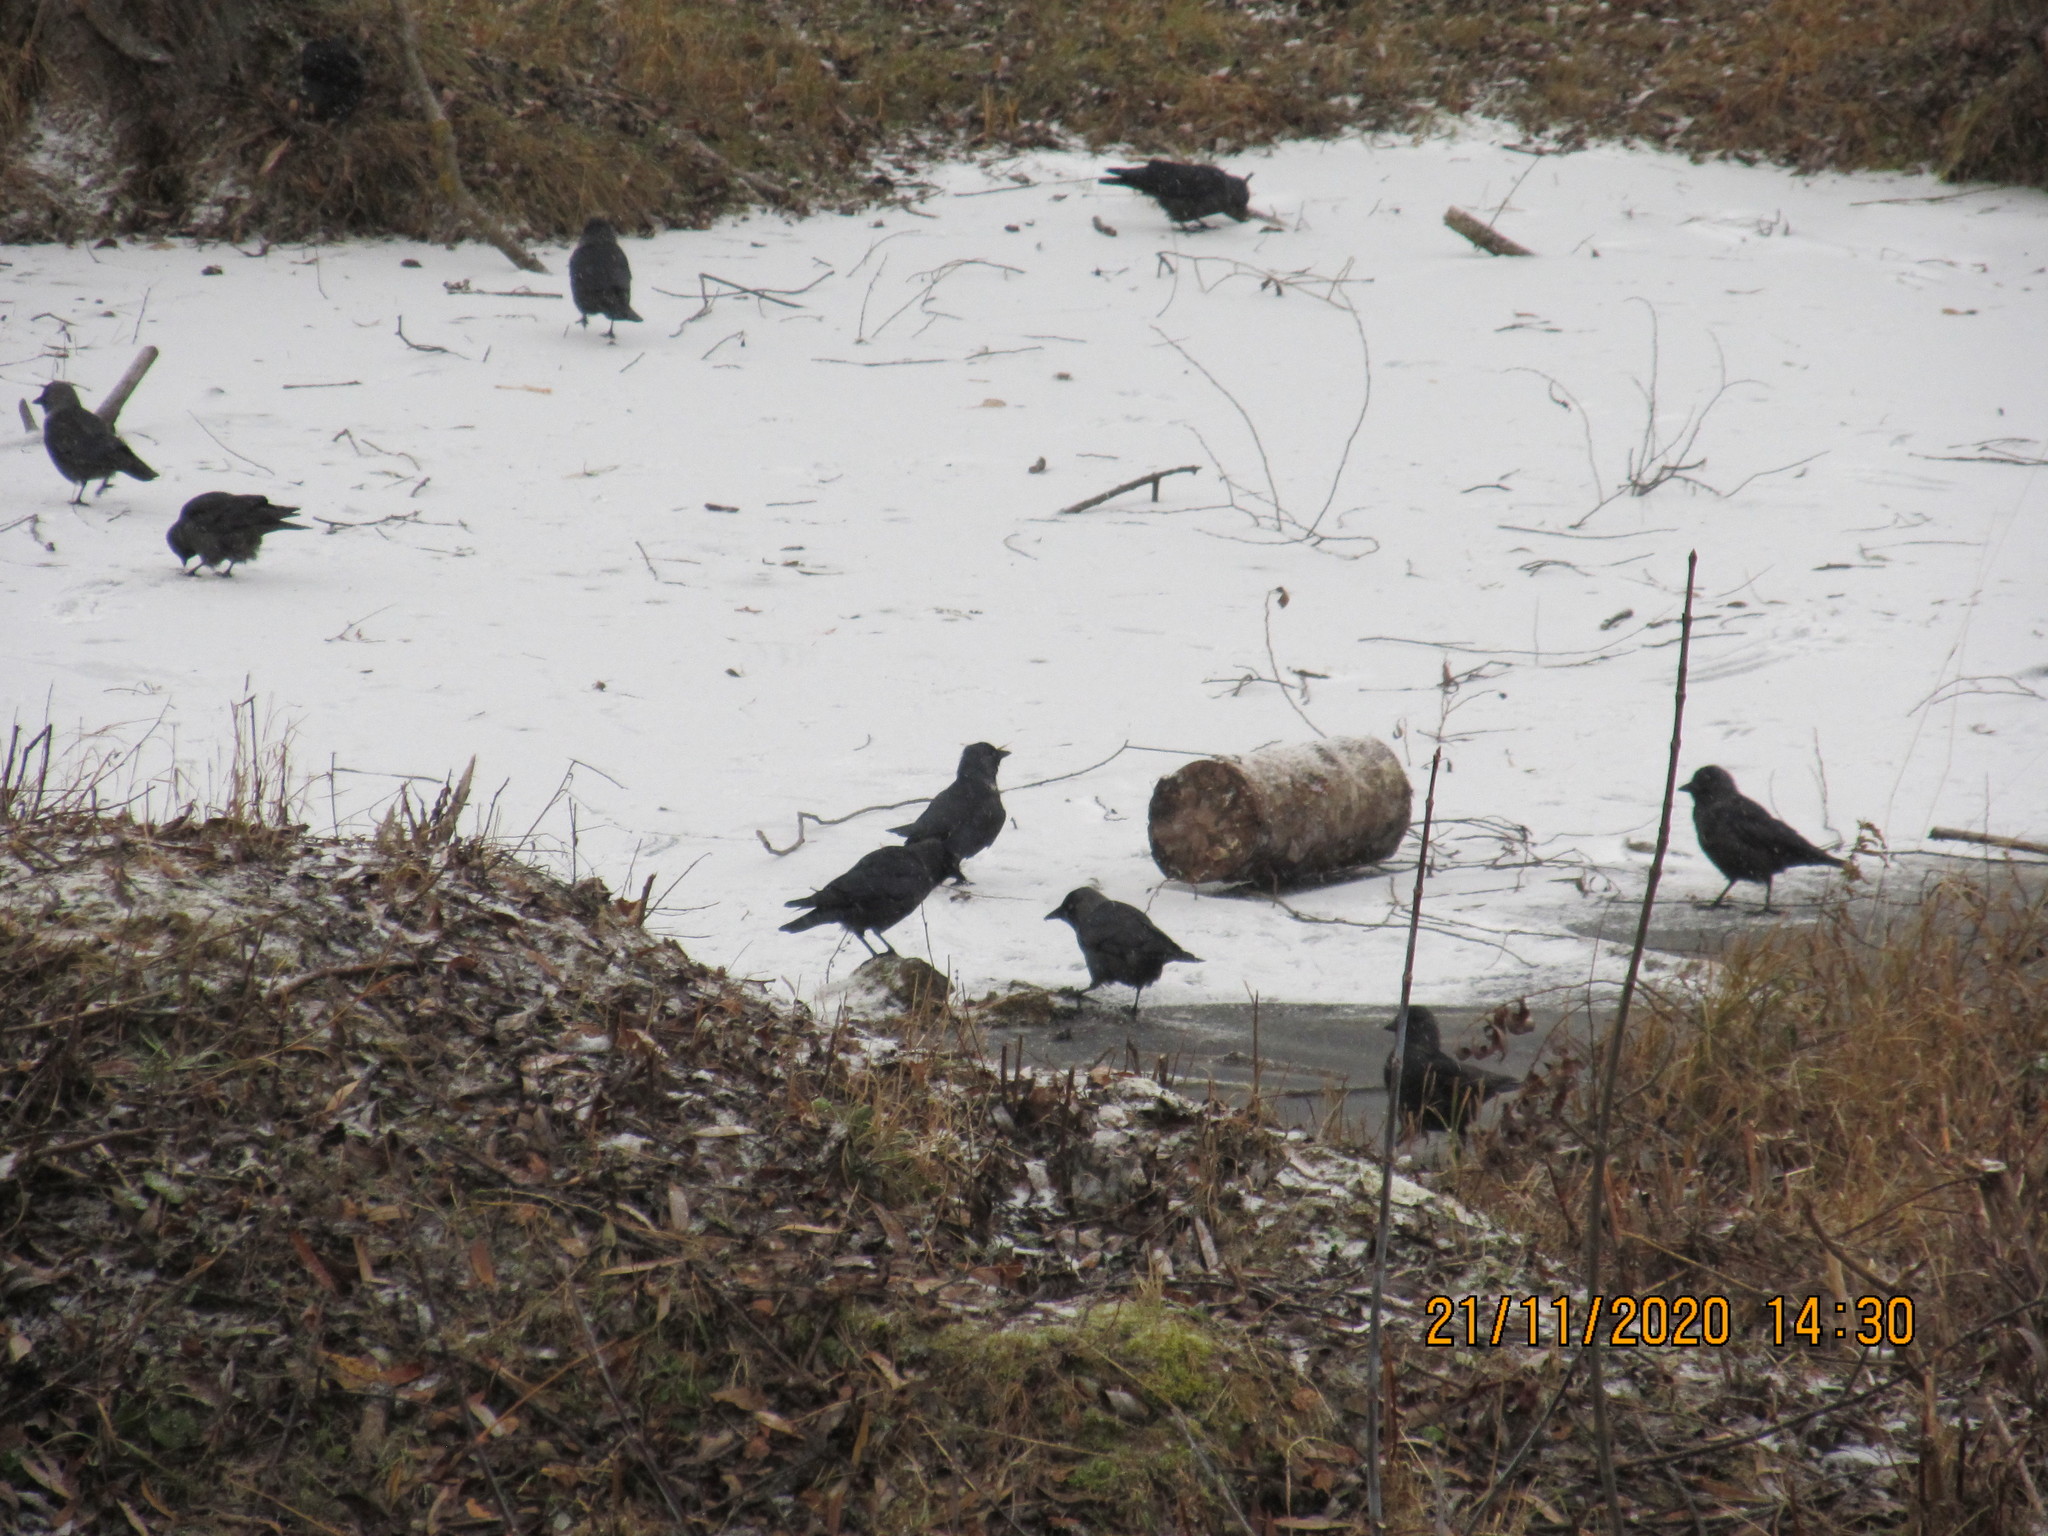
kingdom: Animalia
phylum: Chordata
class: Aves
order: Passeriformes
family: Corvidae
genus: Coloeus
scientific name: Coloeus monedula
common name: Western jackdaw
